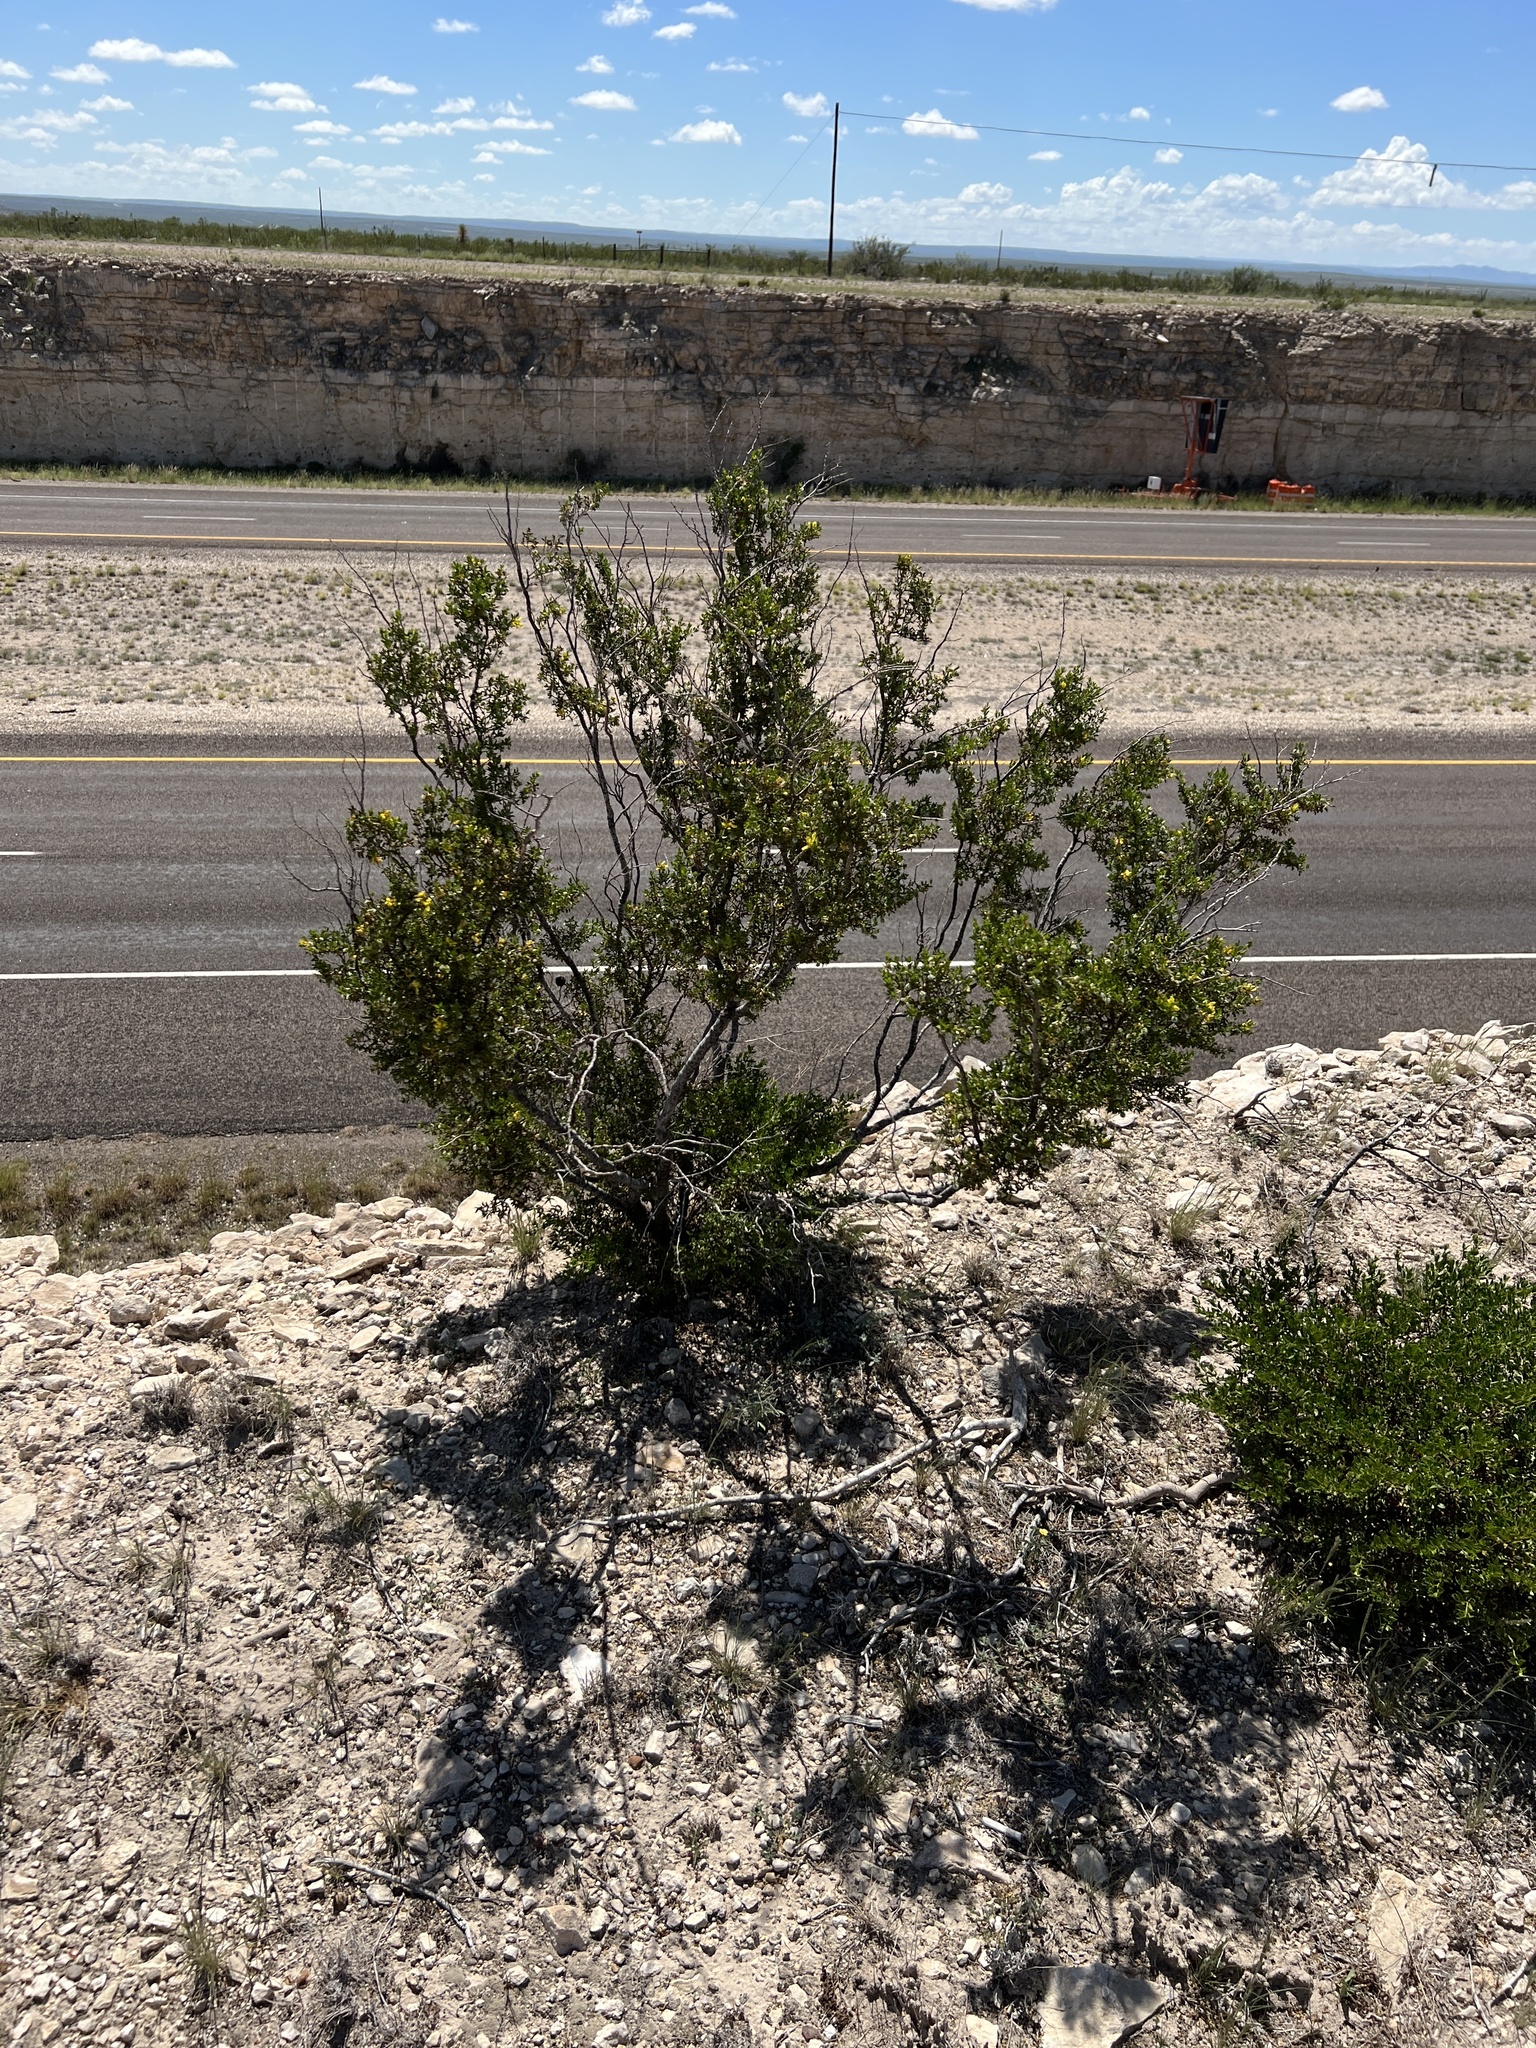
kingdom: Plantae
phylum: Tracheophyta
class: Magnoliopsida
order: Zygophyllales
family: Zygophyllaceae
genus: Larrea
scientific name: Larrea tridentata
